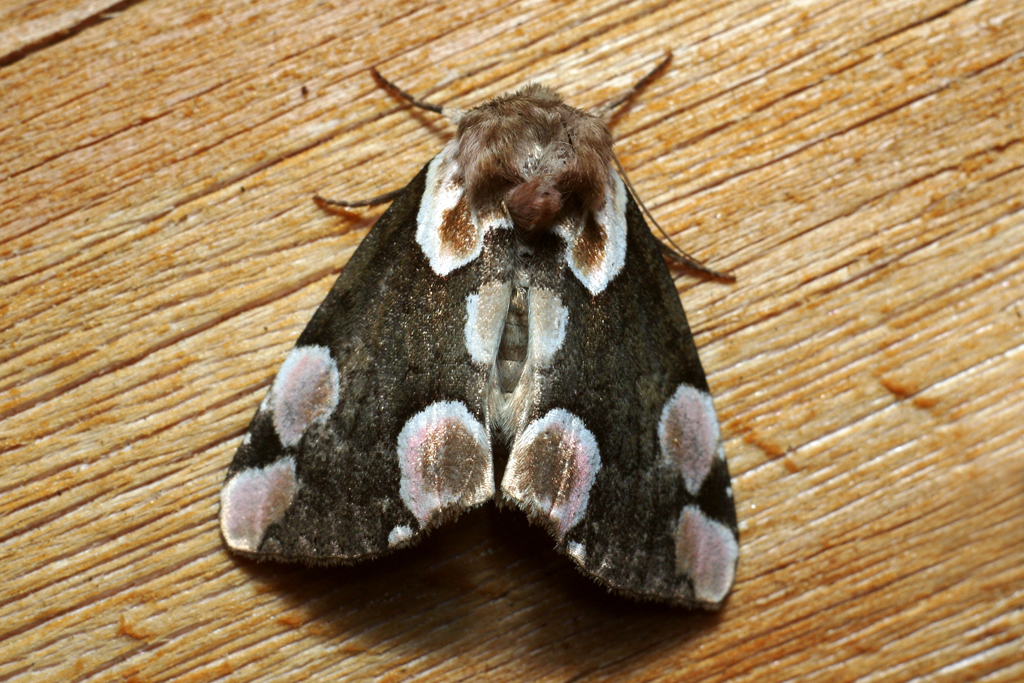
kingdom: Animalia
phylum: Arthropoda
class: Insecta
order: Lepidoptera
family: Drepanidae
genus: Thyatira
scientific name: Thyatira batis
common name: Peach blossom
